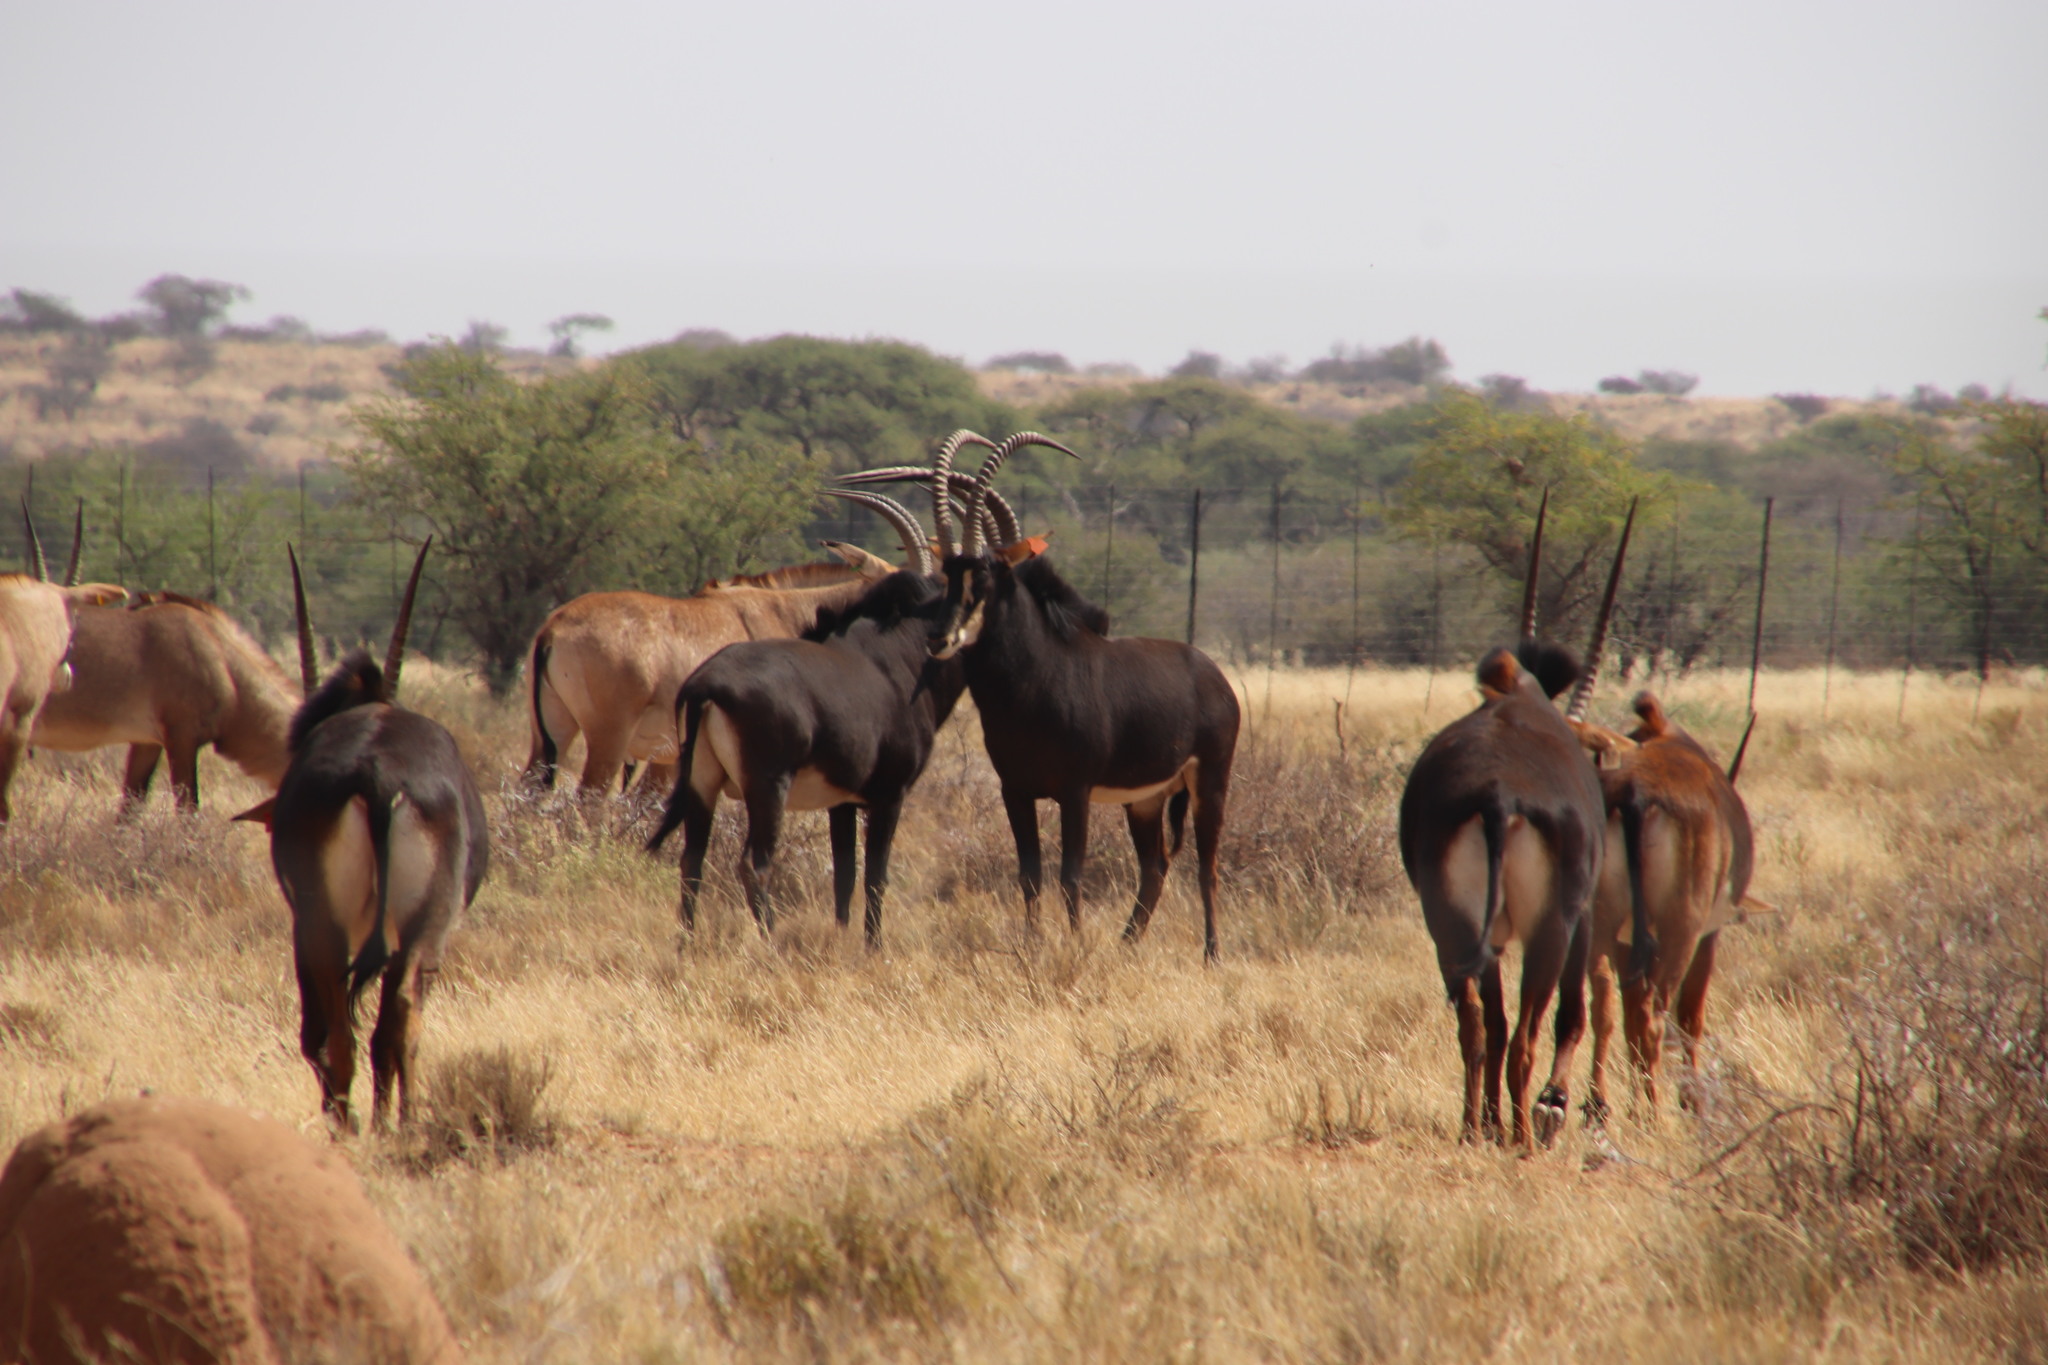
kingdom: Animalia
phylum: Chordata
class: Mammalia
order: Artiodactyla
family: Bovidae
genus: Hippotragus
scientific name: Hippotragus niger
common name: Sable antelope
